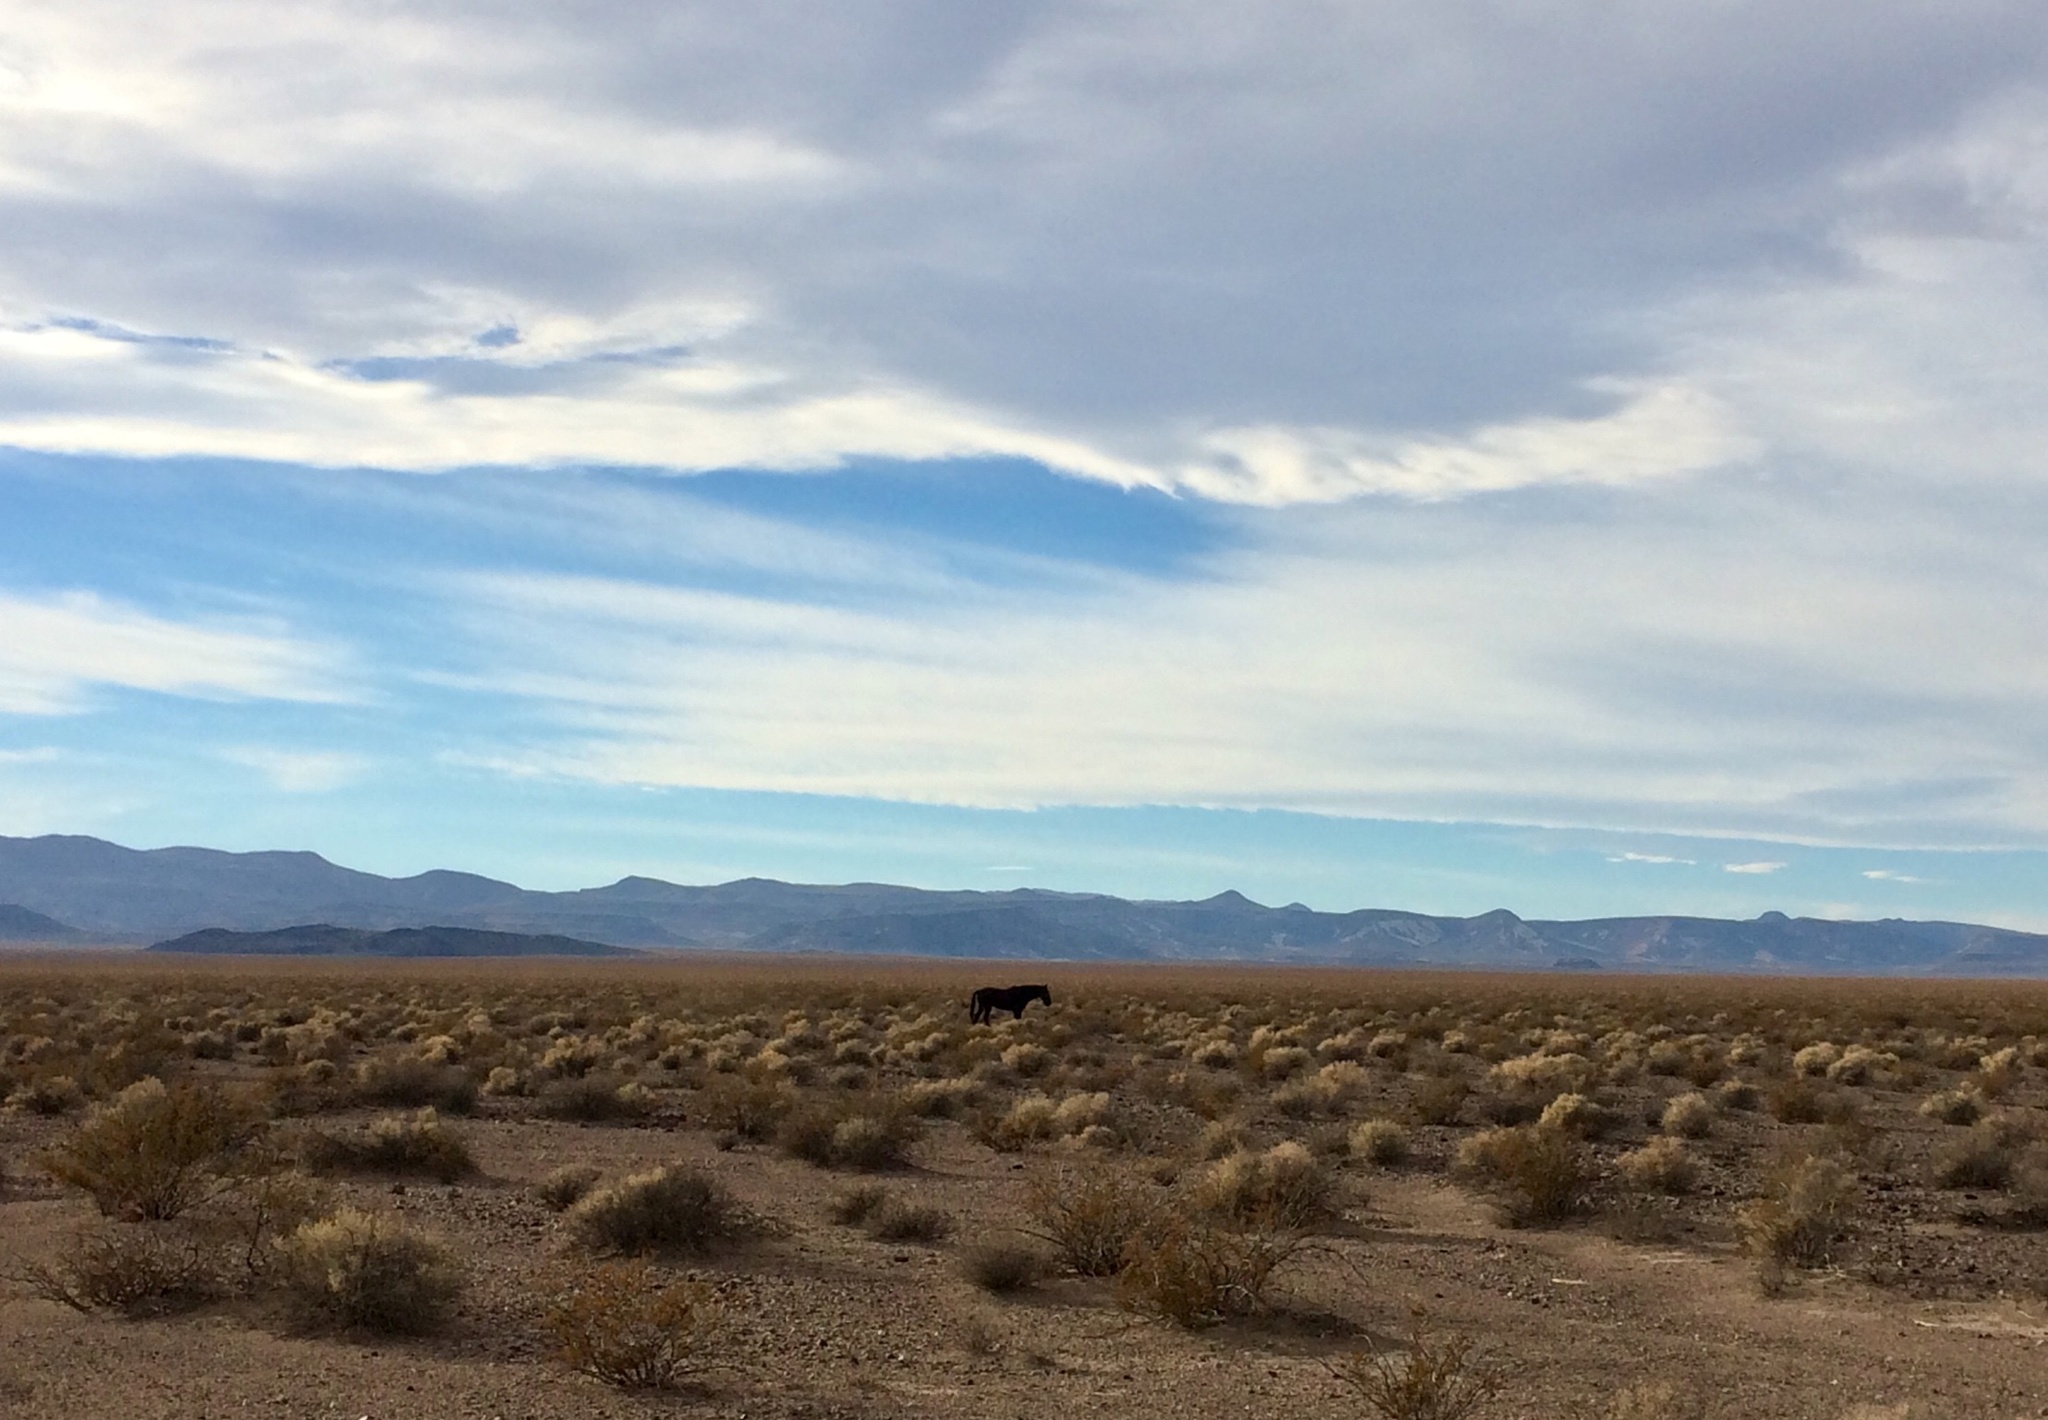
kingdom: Animalia
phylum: Chordata
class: Mammalia
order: Perissodactyla
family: Equidae
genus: Equus
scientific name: Equus caballus
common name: Horse
